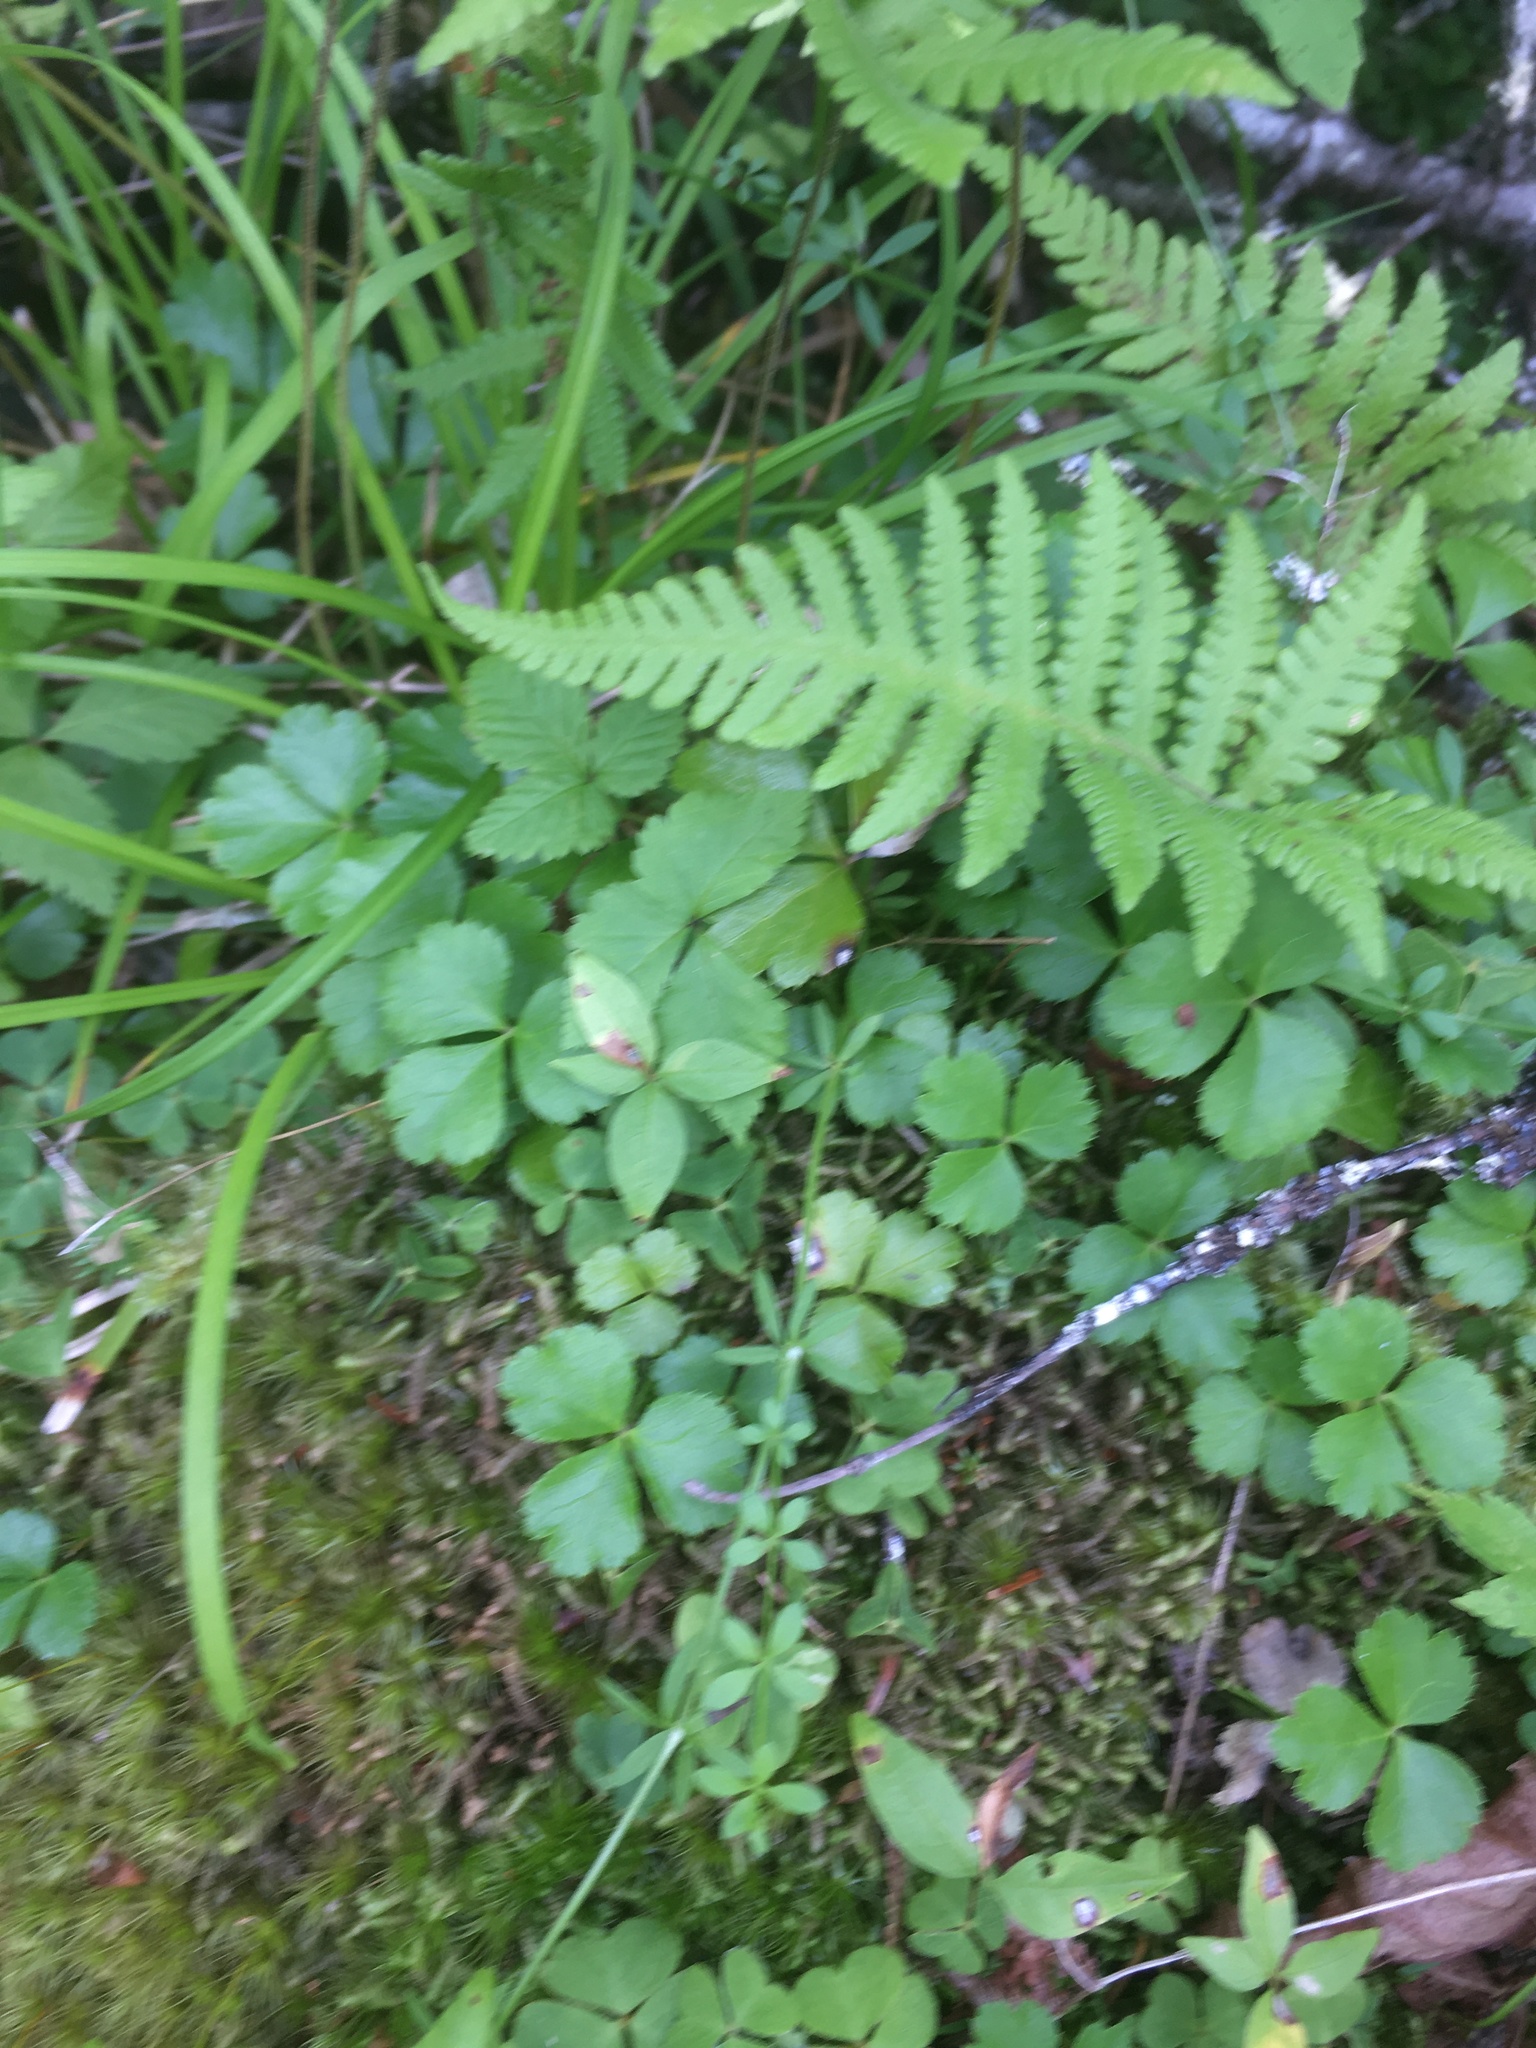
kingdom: Plantae
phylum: Tracheophyta
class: Magnoliopsida
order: Ranunculales
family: Ranunculaceae
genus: Coptis
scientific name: Coptis trifolia
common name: Canker-root
